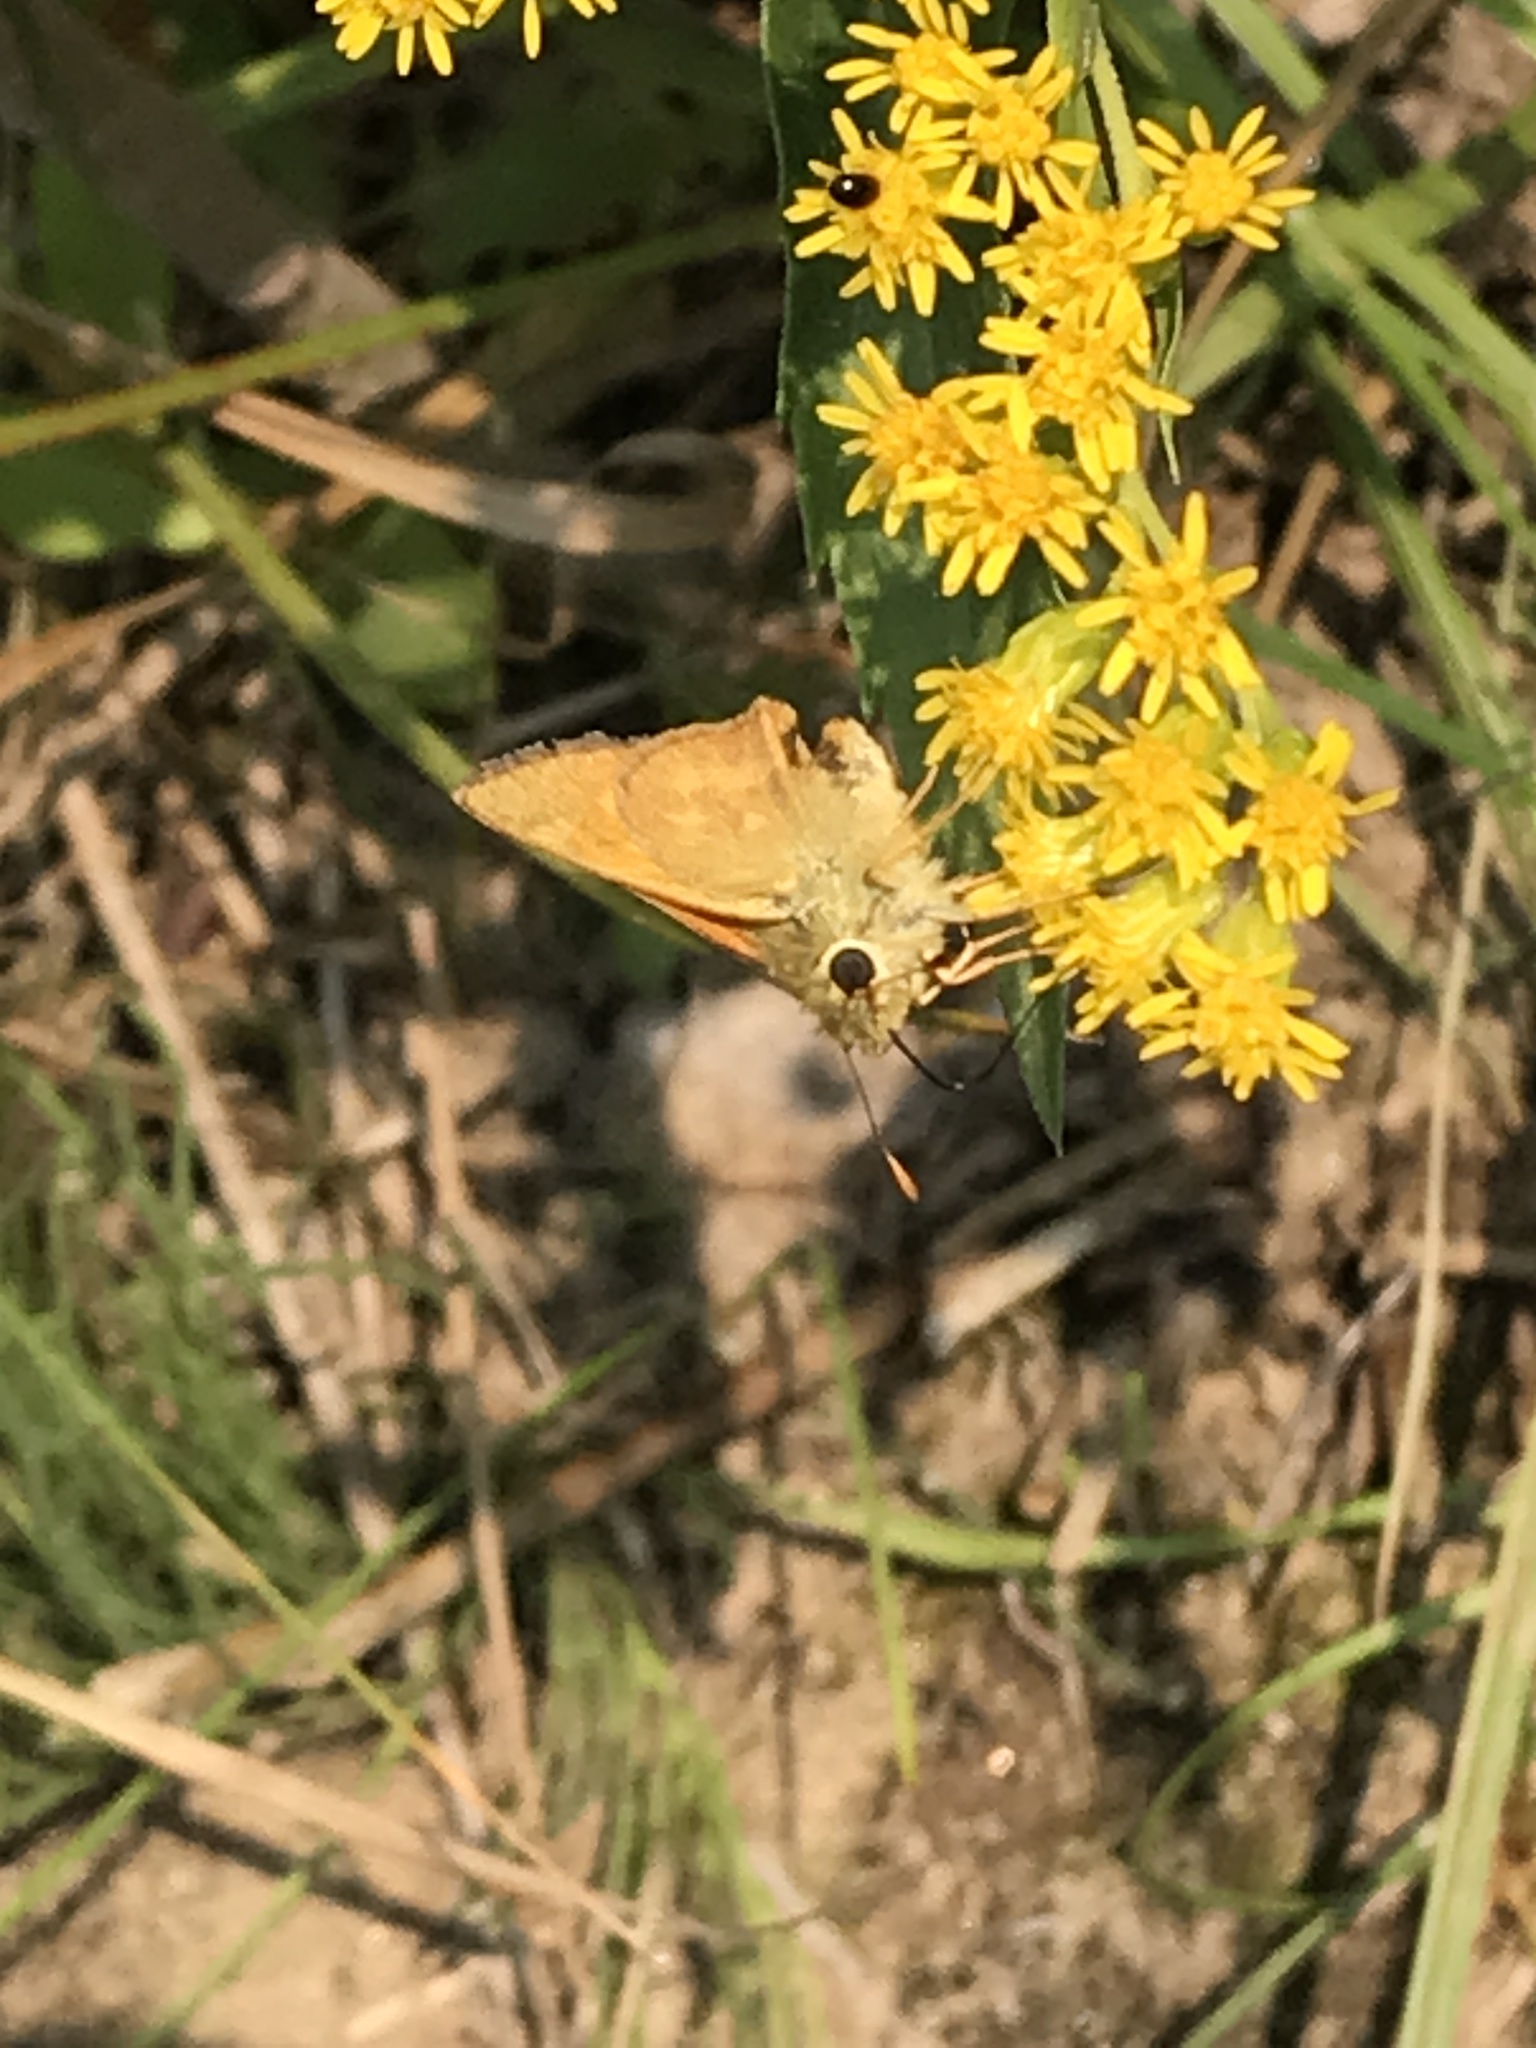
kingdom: Animalia
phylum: Arthropoda
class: Insecta
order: Lepidoptera
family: Hesperiidae
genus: Ochlodes
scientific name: Ochlodes sylvanoides
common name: Woodland skipper
